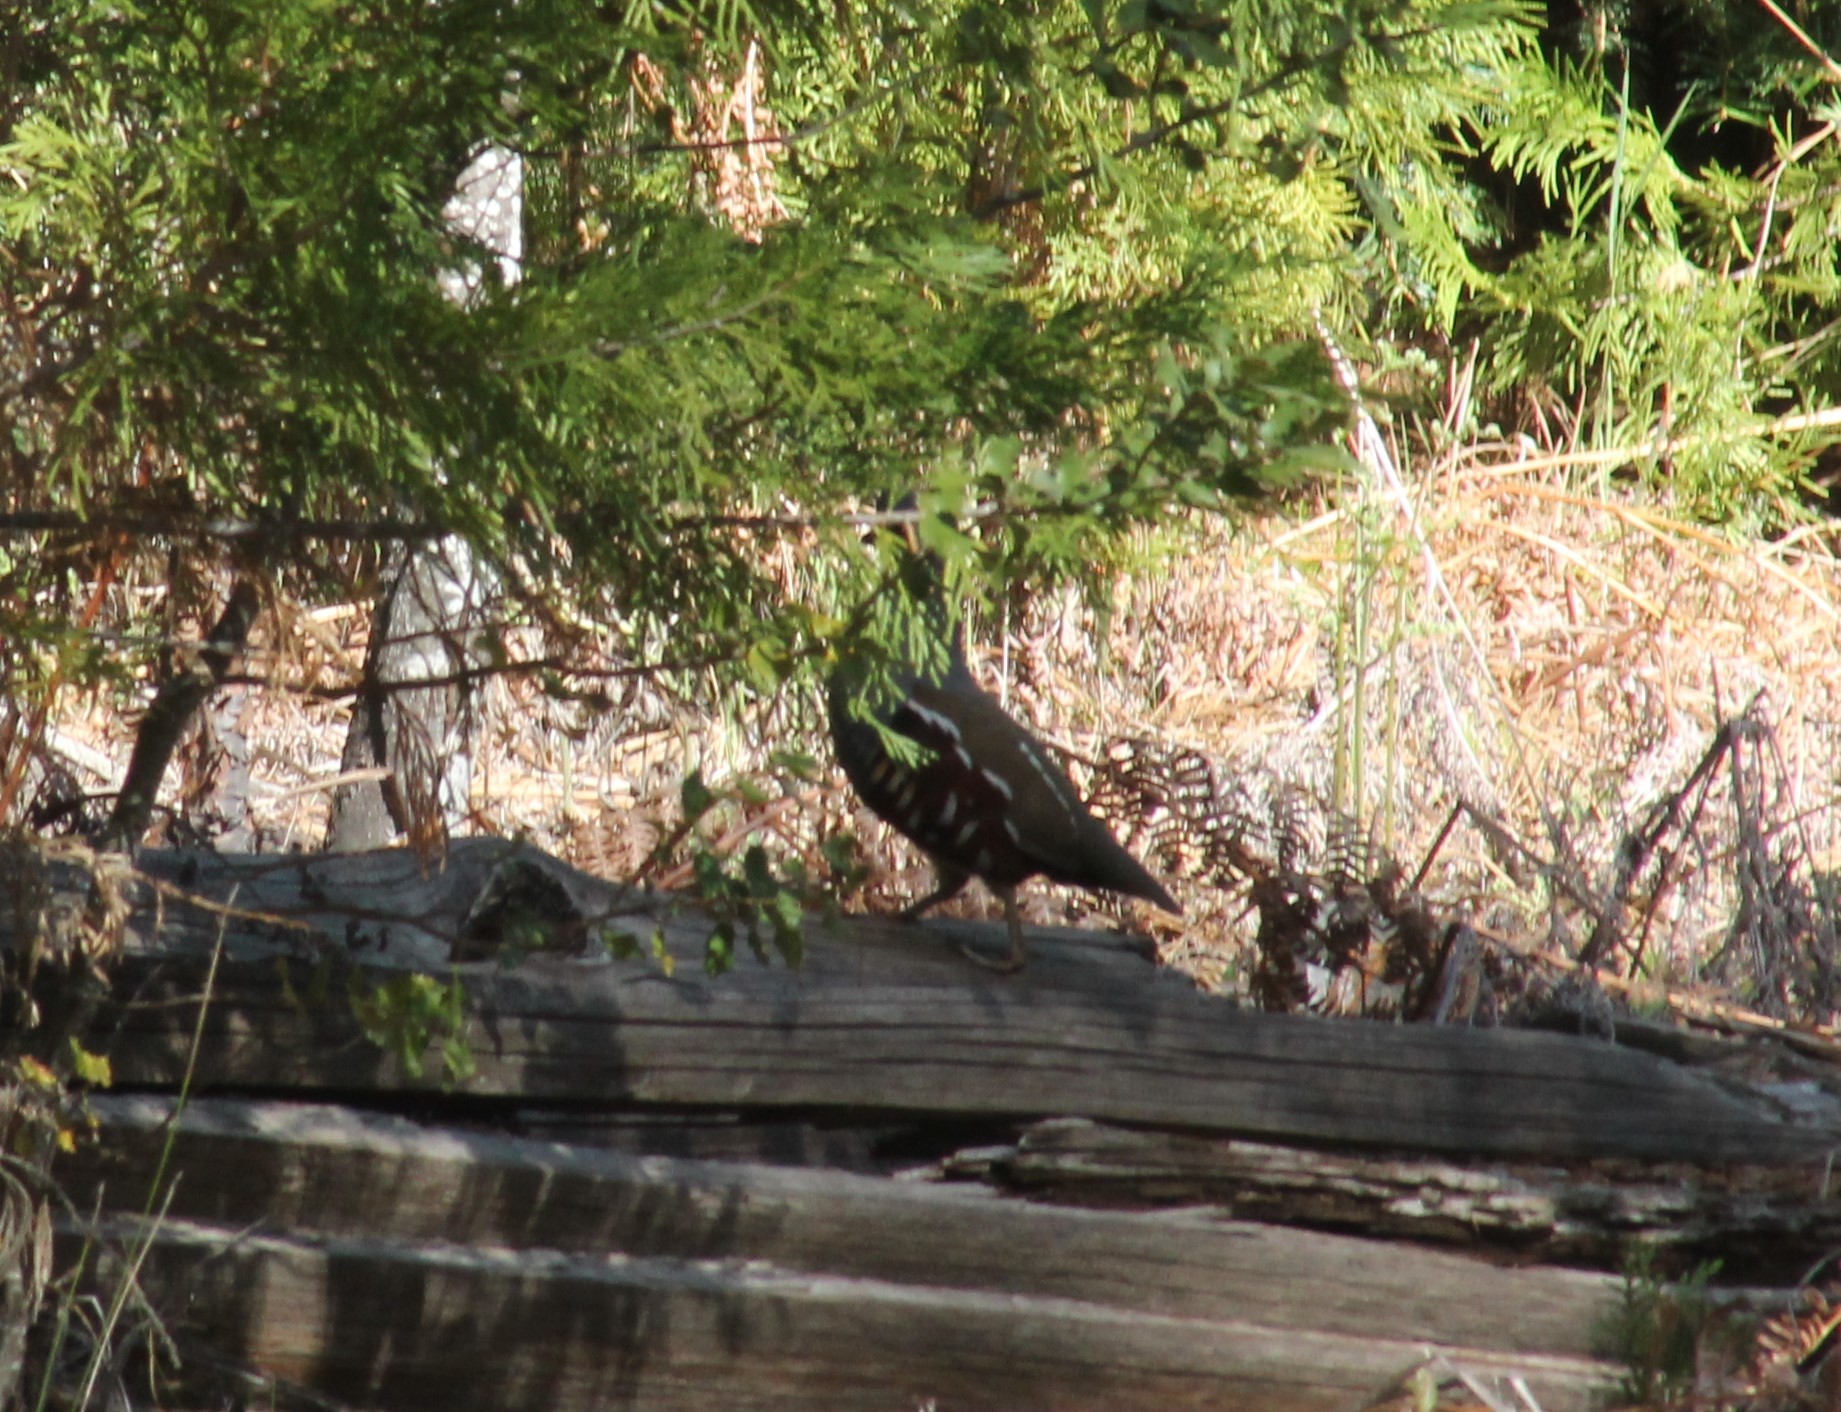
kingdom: Animalia
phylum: Chordata
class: Aves
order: Galliformes
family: Odontophoridae
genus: Oreortyx
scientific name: Oreortyx pictus
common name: Mountain quail
